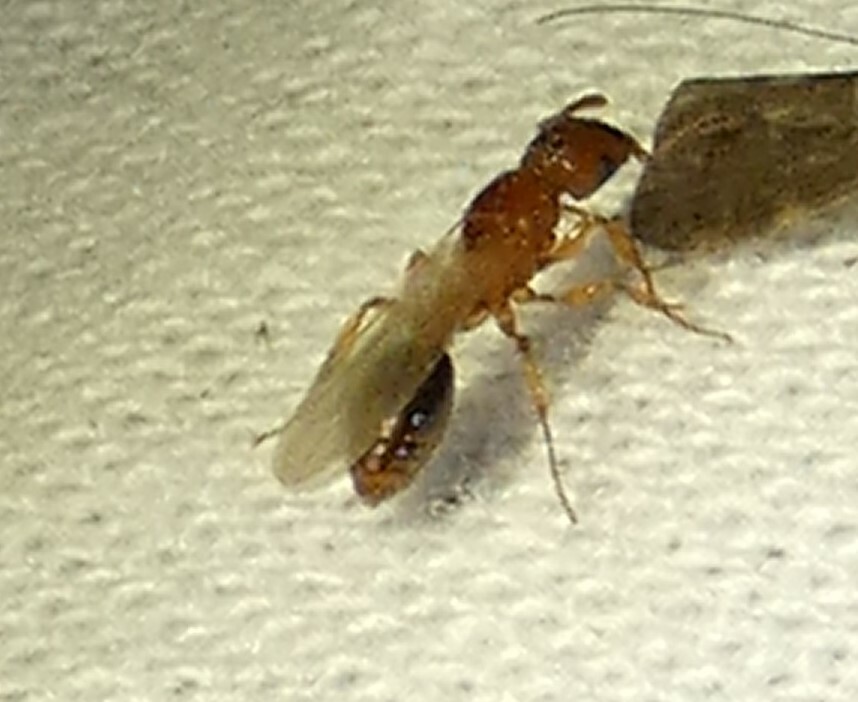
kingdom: Animalia
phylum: Arthropoda
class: Insecta
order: Hymenoptera
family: Formicidae
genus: Tetramorium
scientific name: Tetramorium bicarinatum
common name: Guinea ant
